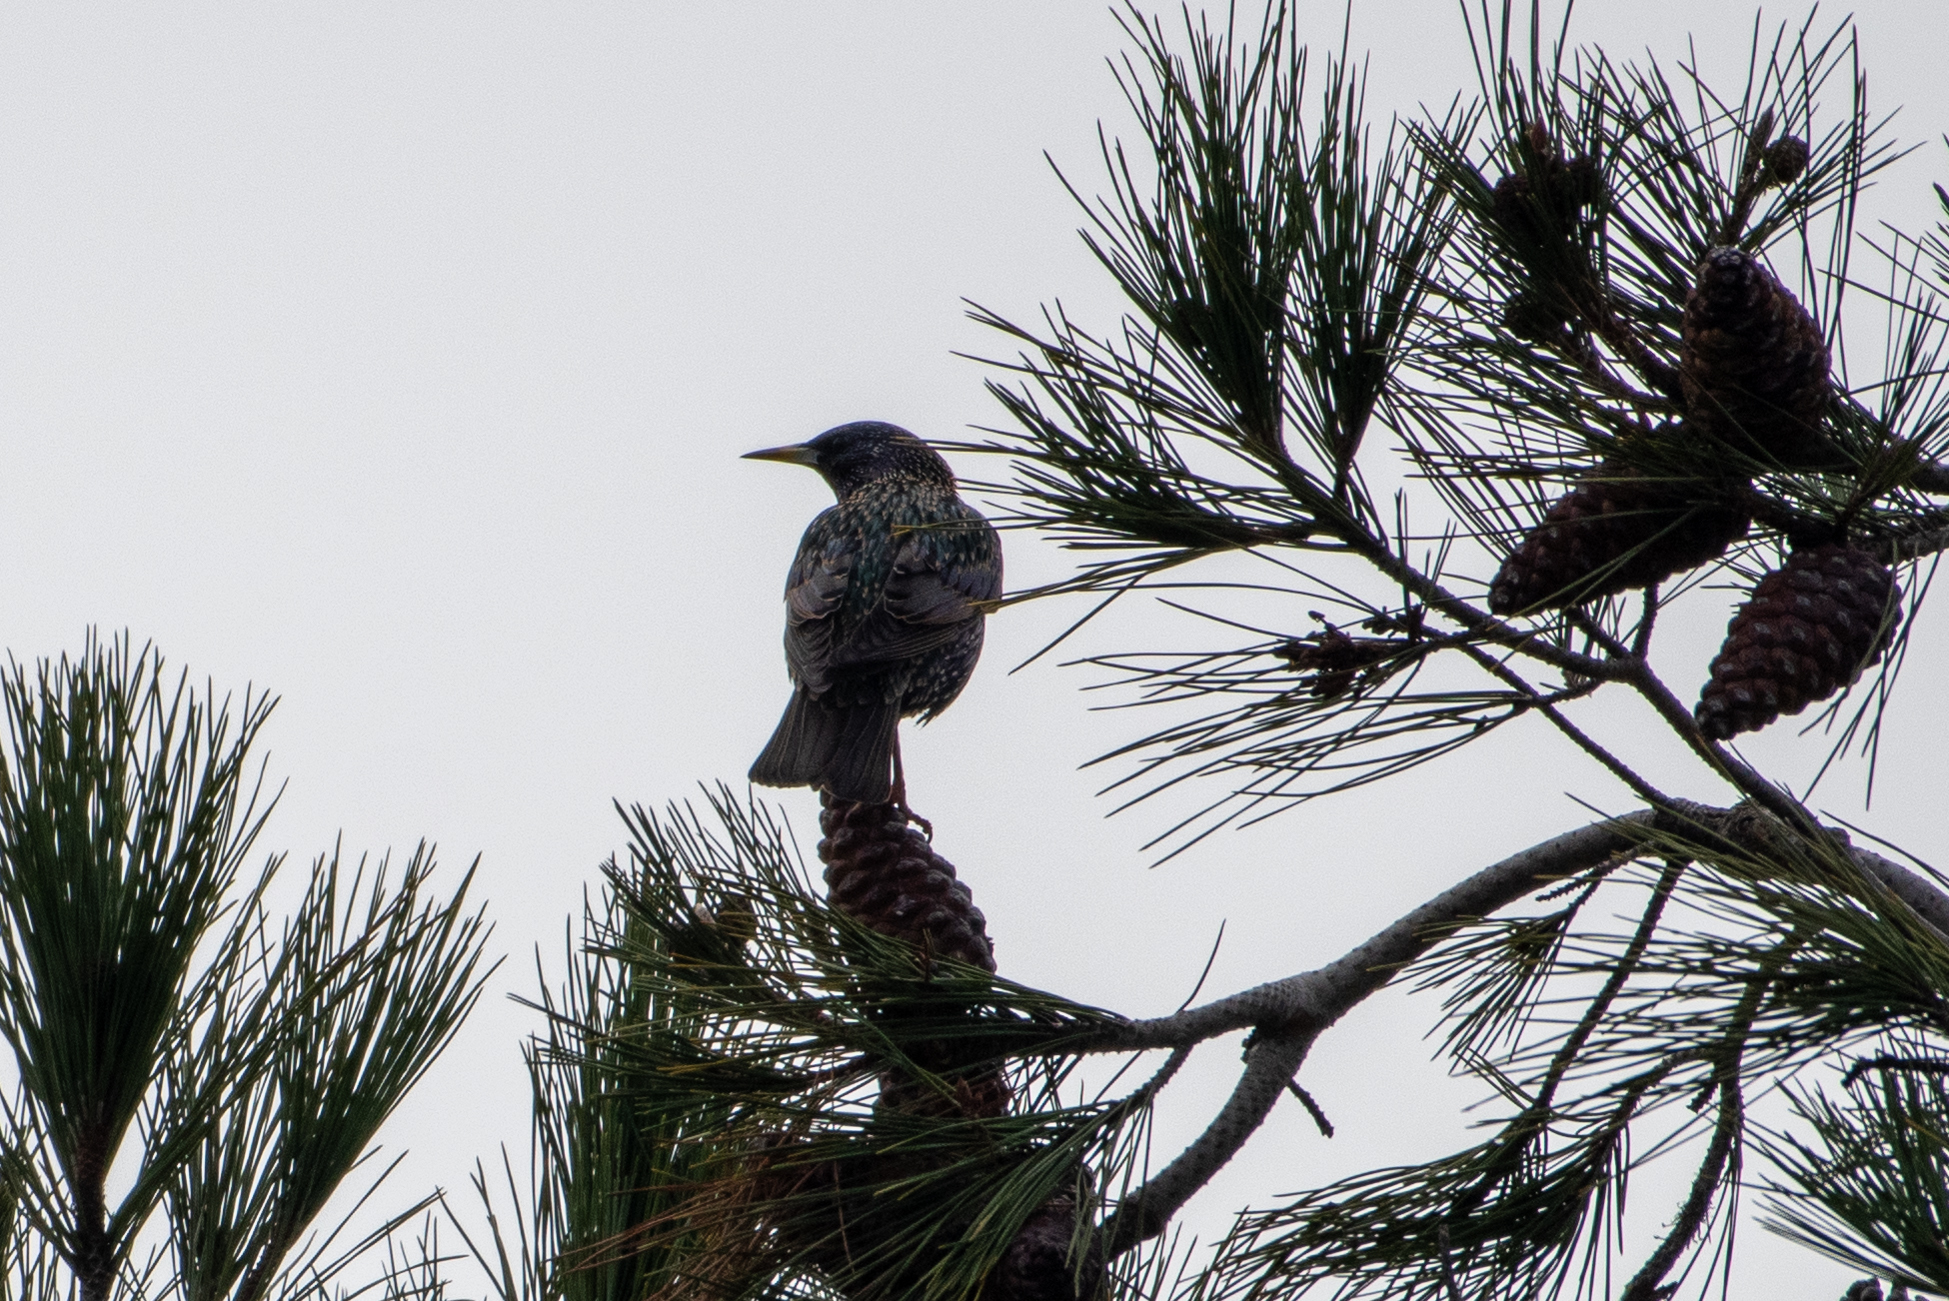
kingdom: Animalia
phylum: Chordata
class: Aves
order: Passeriformes
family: Sturnidae
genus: Sturnus
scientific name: Sturnus vulgaris
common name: Common starling
